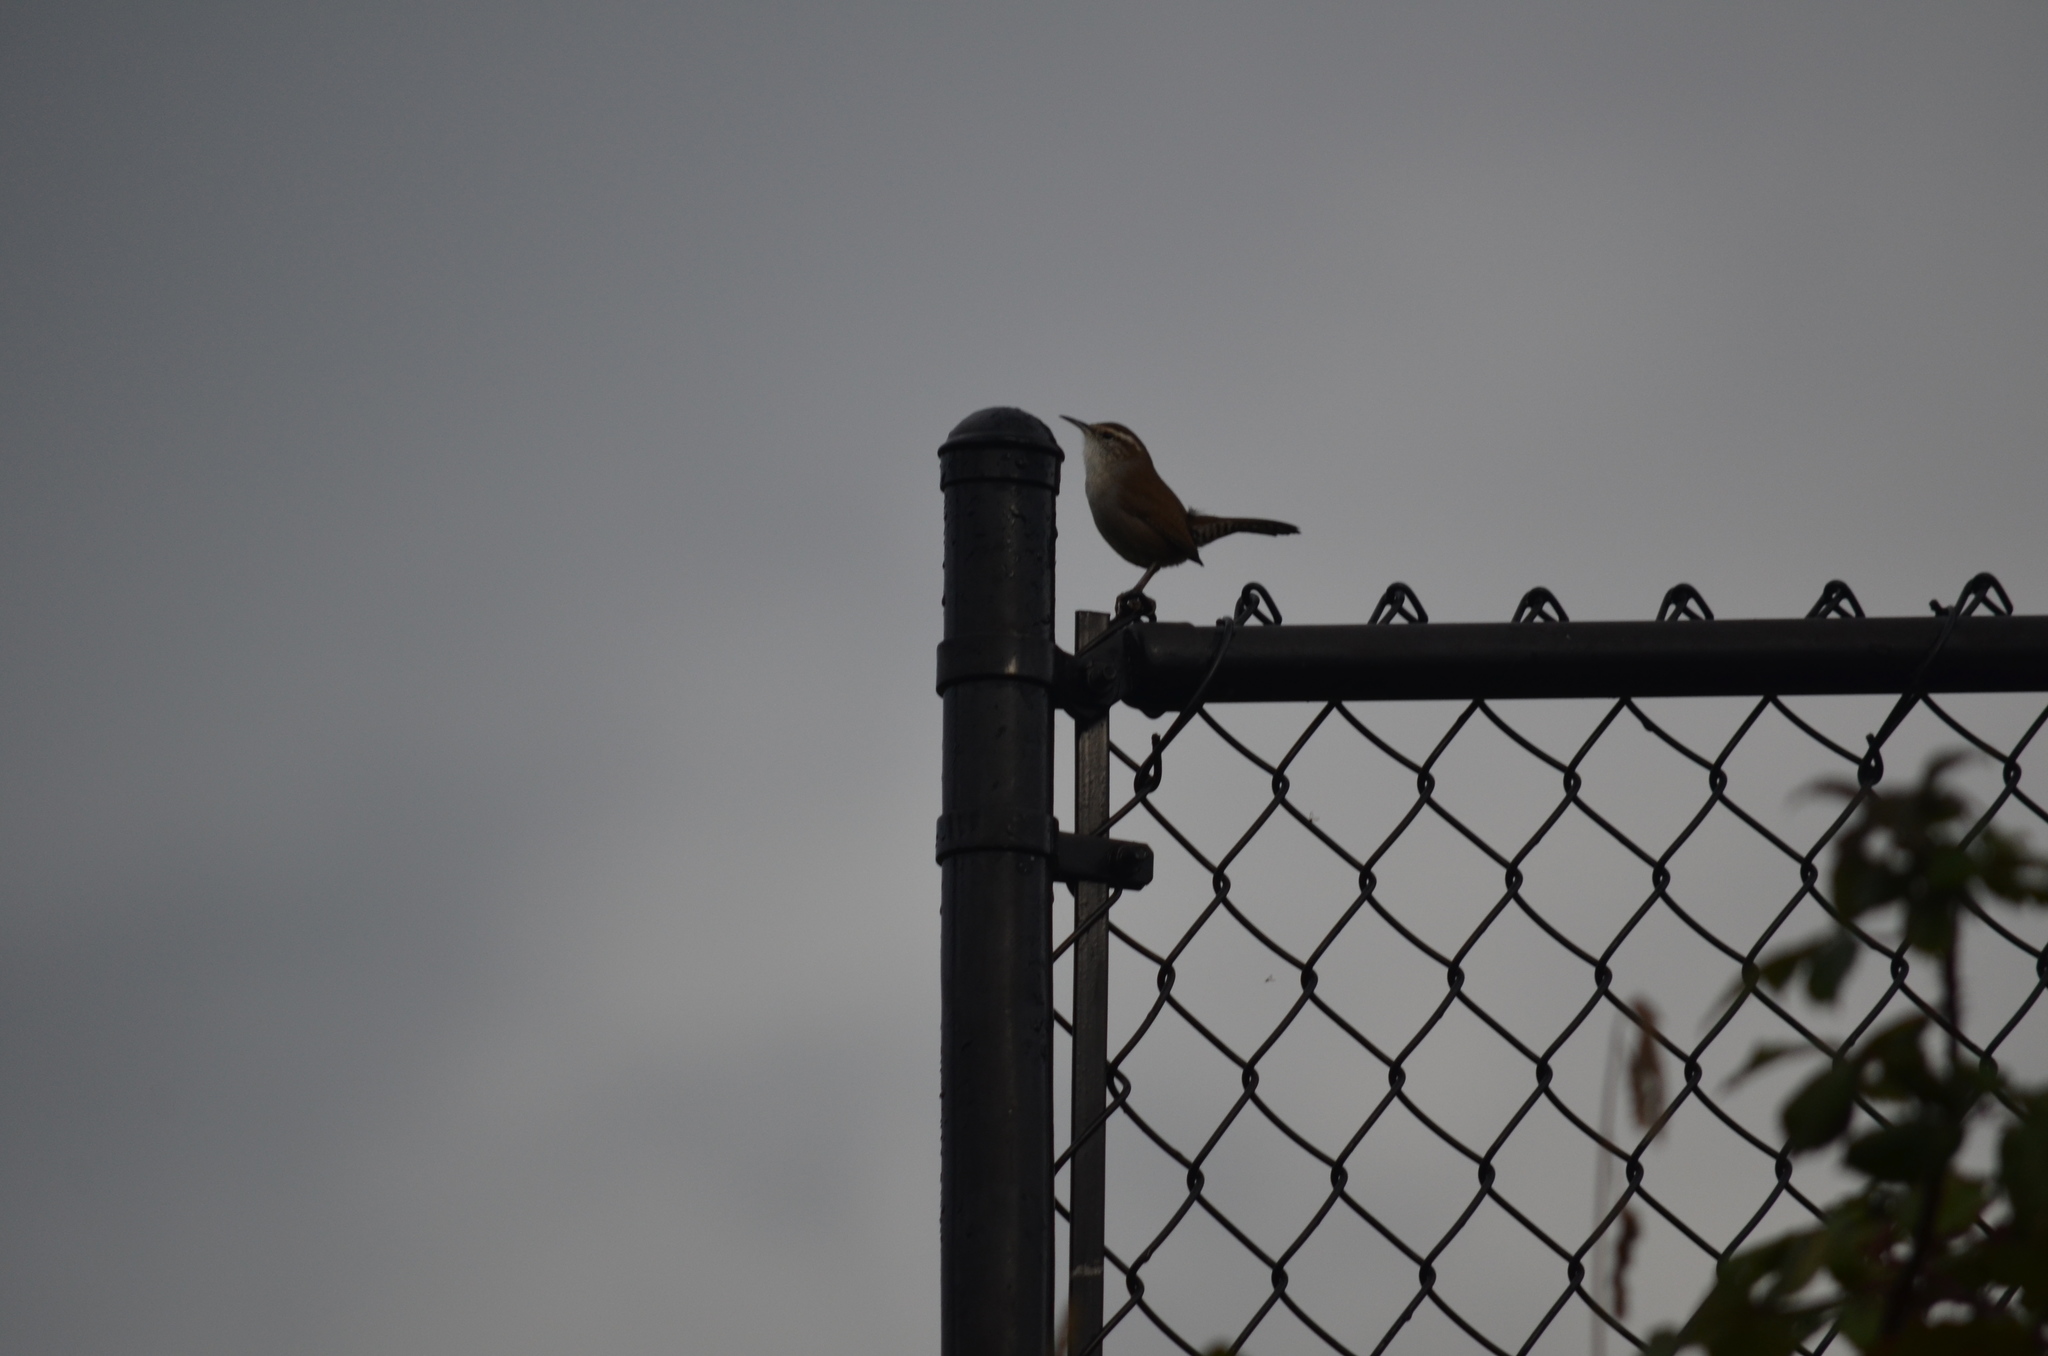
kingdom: Animalia
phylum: Chordata
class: Aves
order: Passeriformes
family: Troglodytidae
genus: Thryomanes
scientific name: Thryomanes bewickii
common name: Bewick's wren
